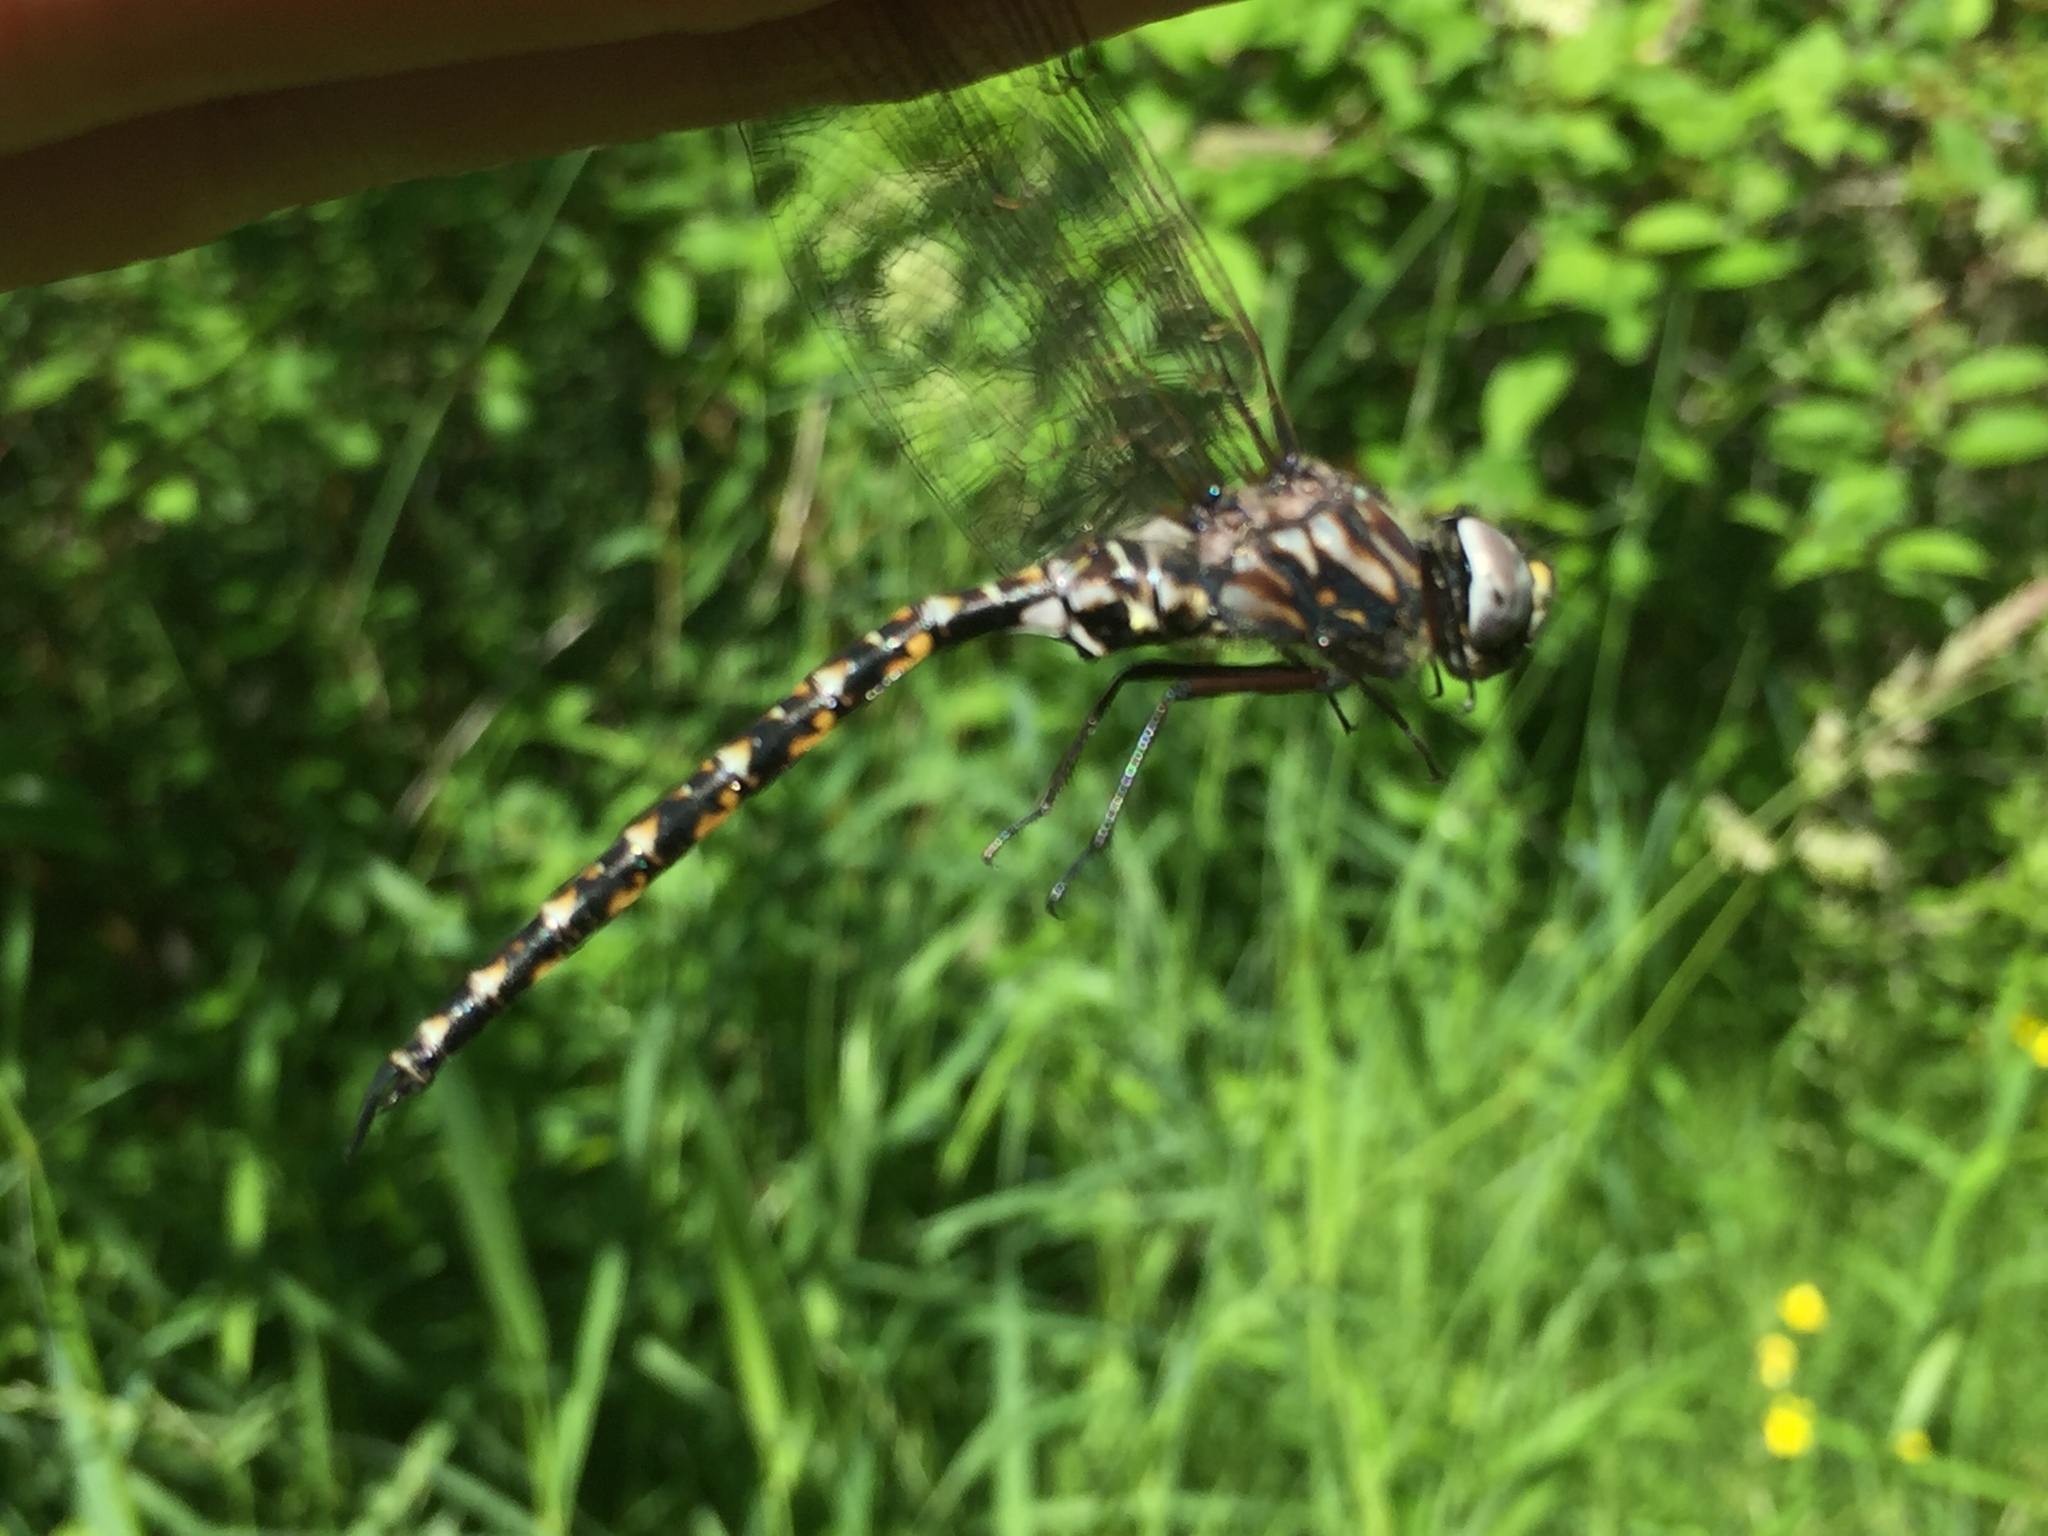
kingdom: Animalia
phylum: Arthropoda
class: Insecta
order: Odonata
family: Aeshnidae
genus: Gomphaeschna
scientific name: Gomphaeschna furcillata
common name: Harlequin darner
